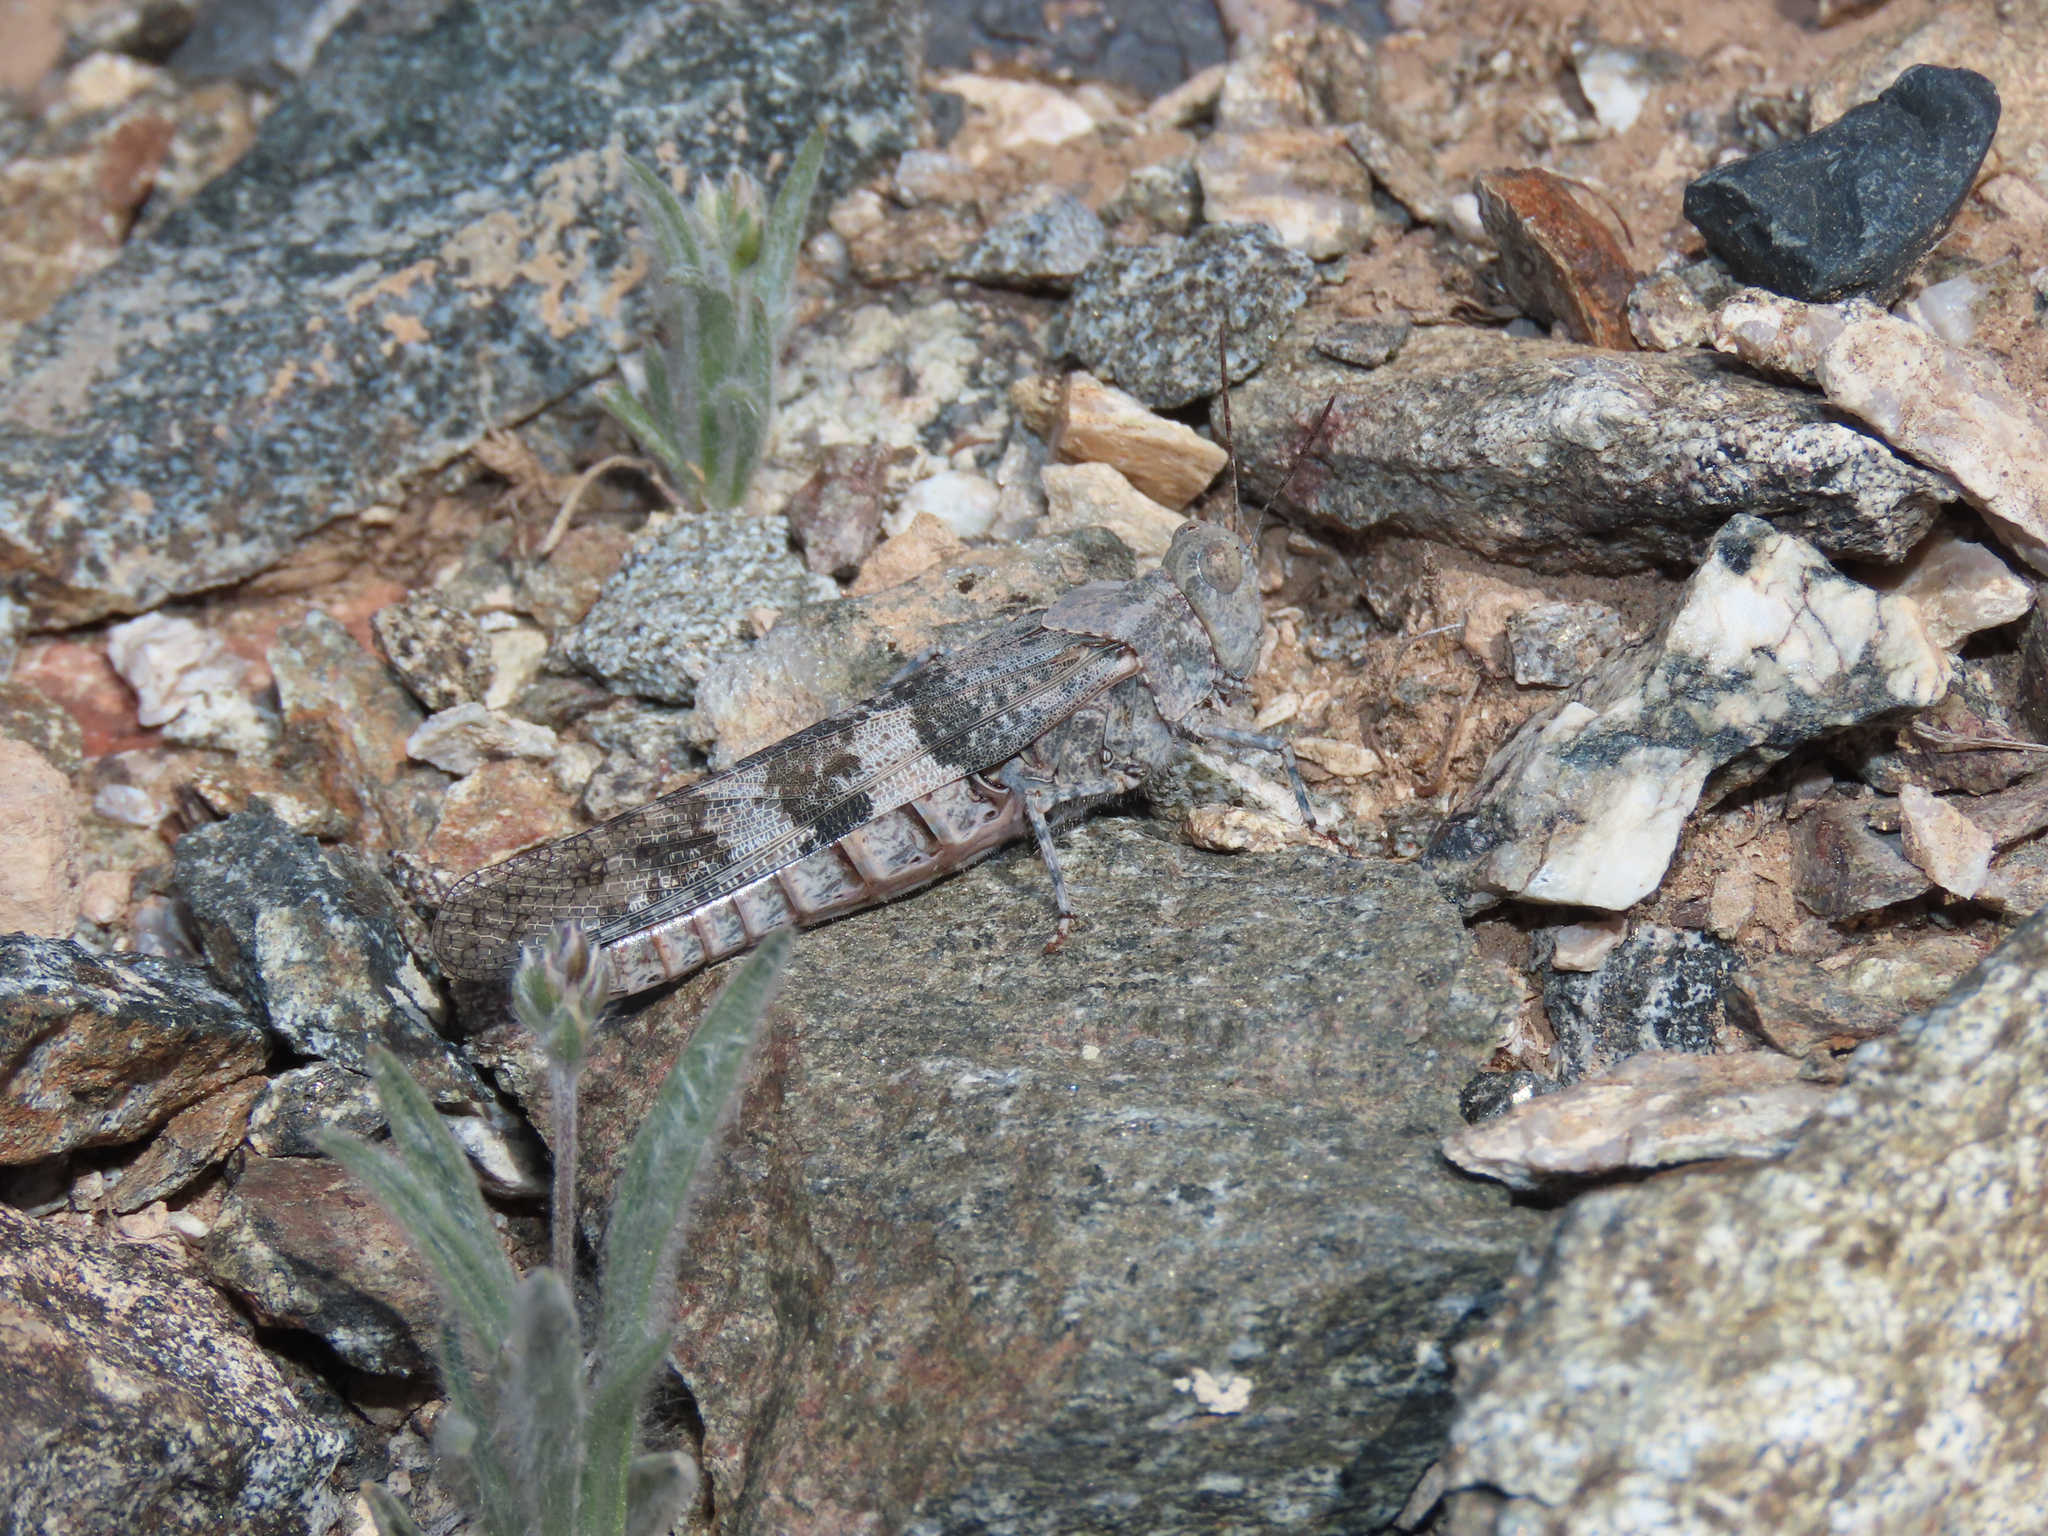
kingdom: Animalia
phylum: Arthropoda
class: Insecta
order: Orthoptera
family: Acrididae
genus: Trimerotropis
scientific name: Trimerotropis pallidipennis
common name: Pallid-winged grasshopper
